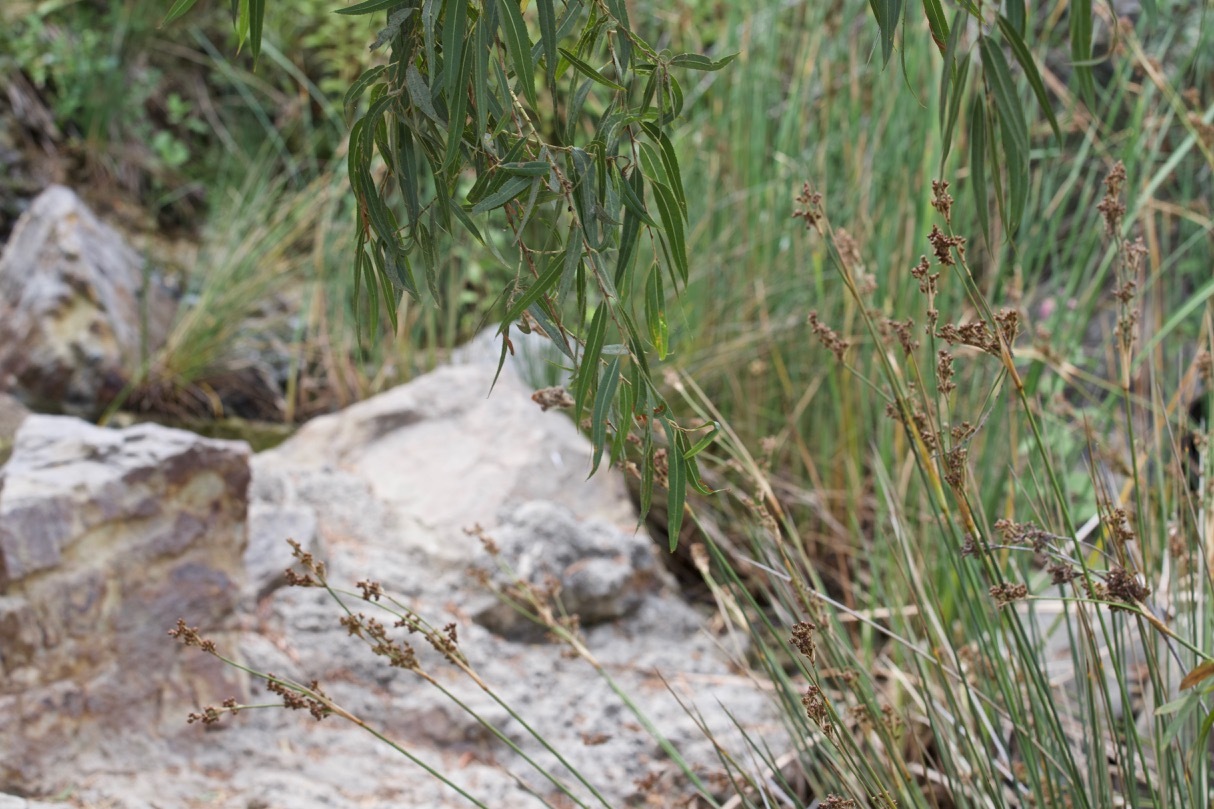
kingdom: Plantae
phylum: Tracheophyta
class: Magnoliopsida
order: Malpighiales
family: Salicaceae
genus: Salix
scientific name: Salix gooddingii
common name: Goodding's willow
